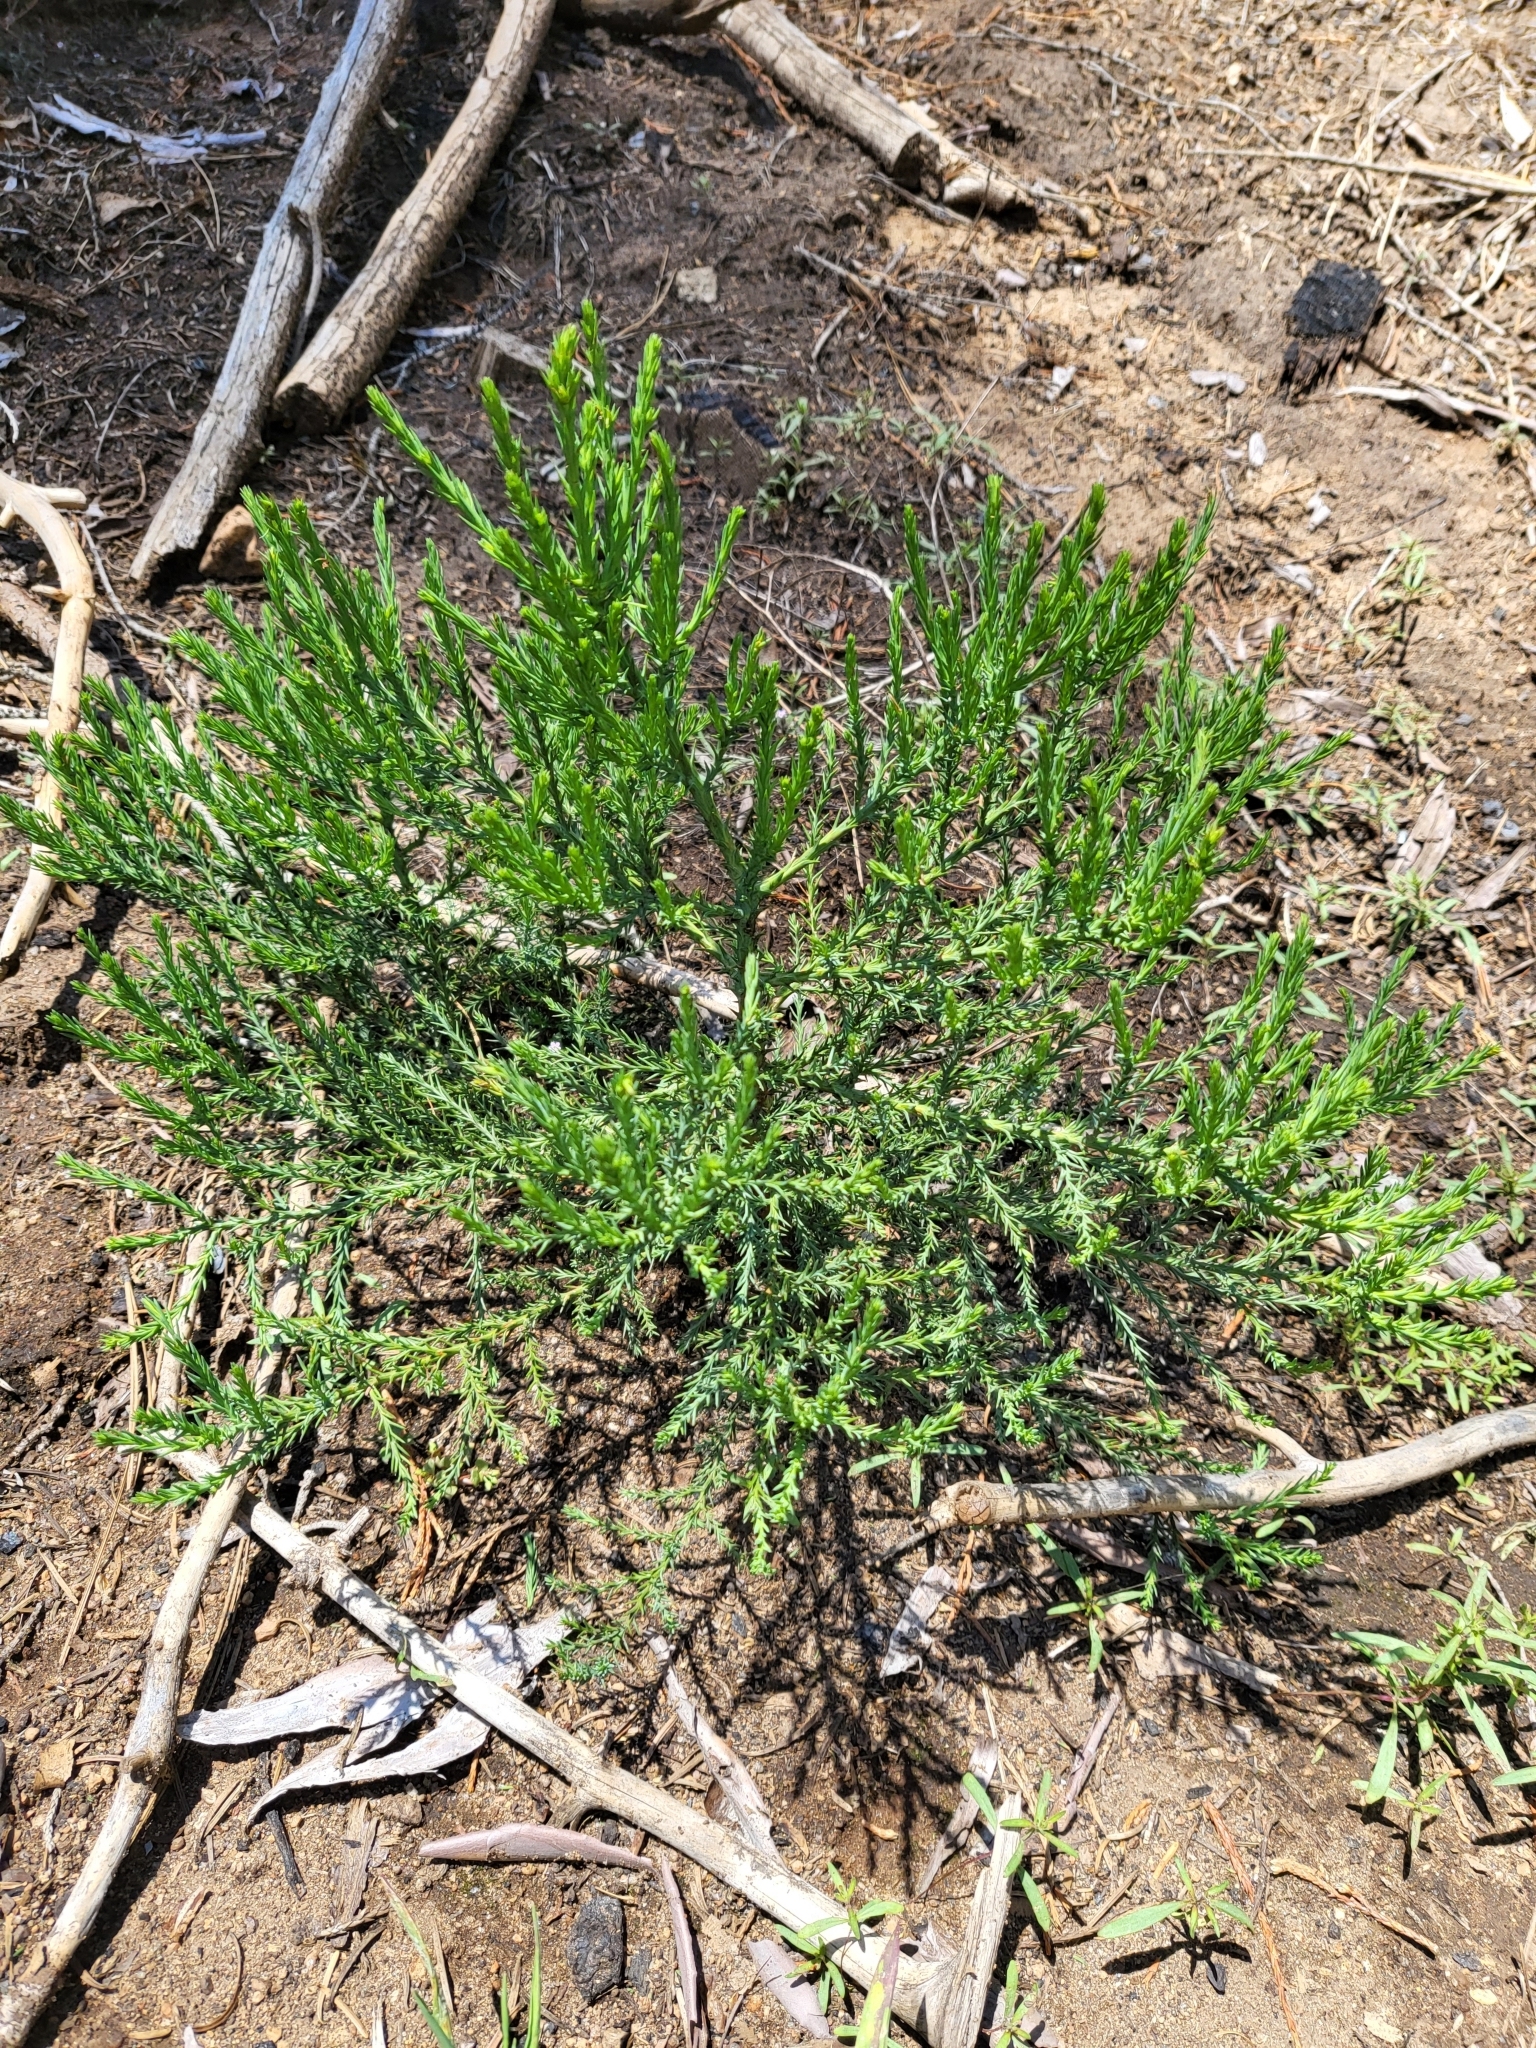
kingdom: Plantae
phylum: Tracheophyta
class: Pinopsida
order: Pinales
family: Cupressaceae
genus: Sequoiadendron
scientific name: Sequoiadendron giganteum
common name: Wellingtonia
